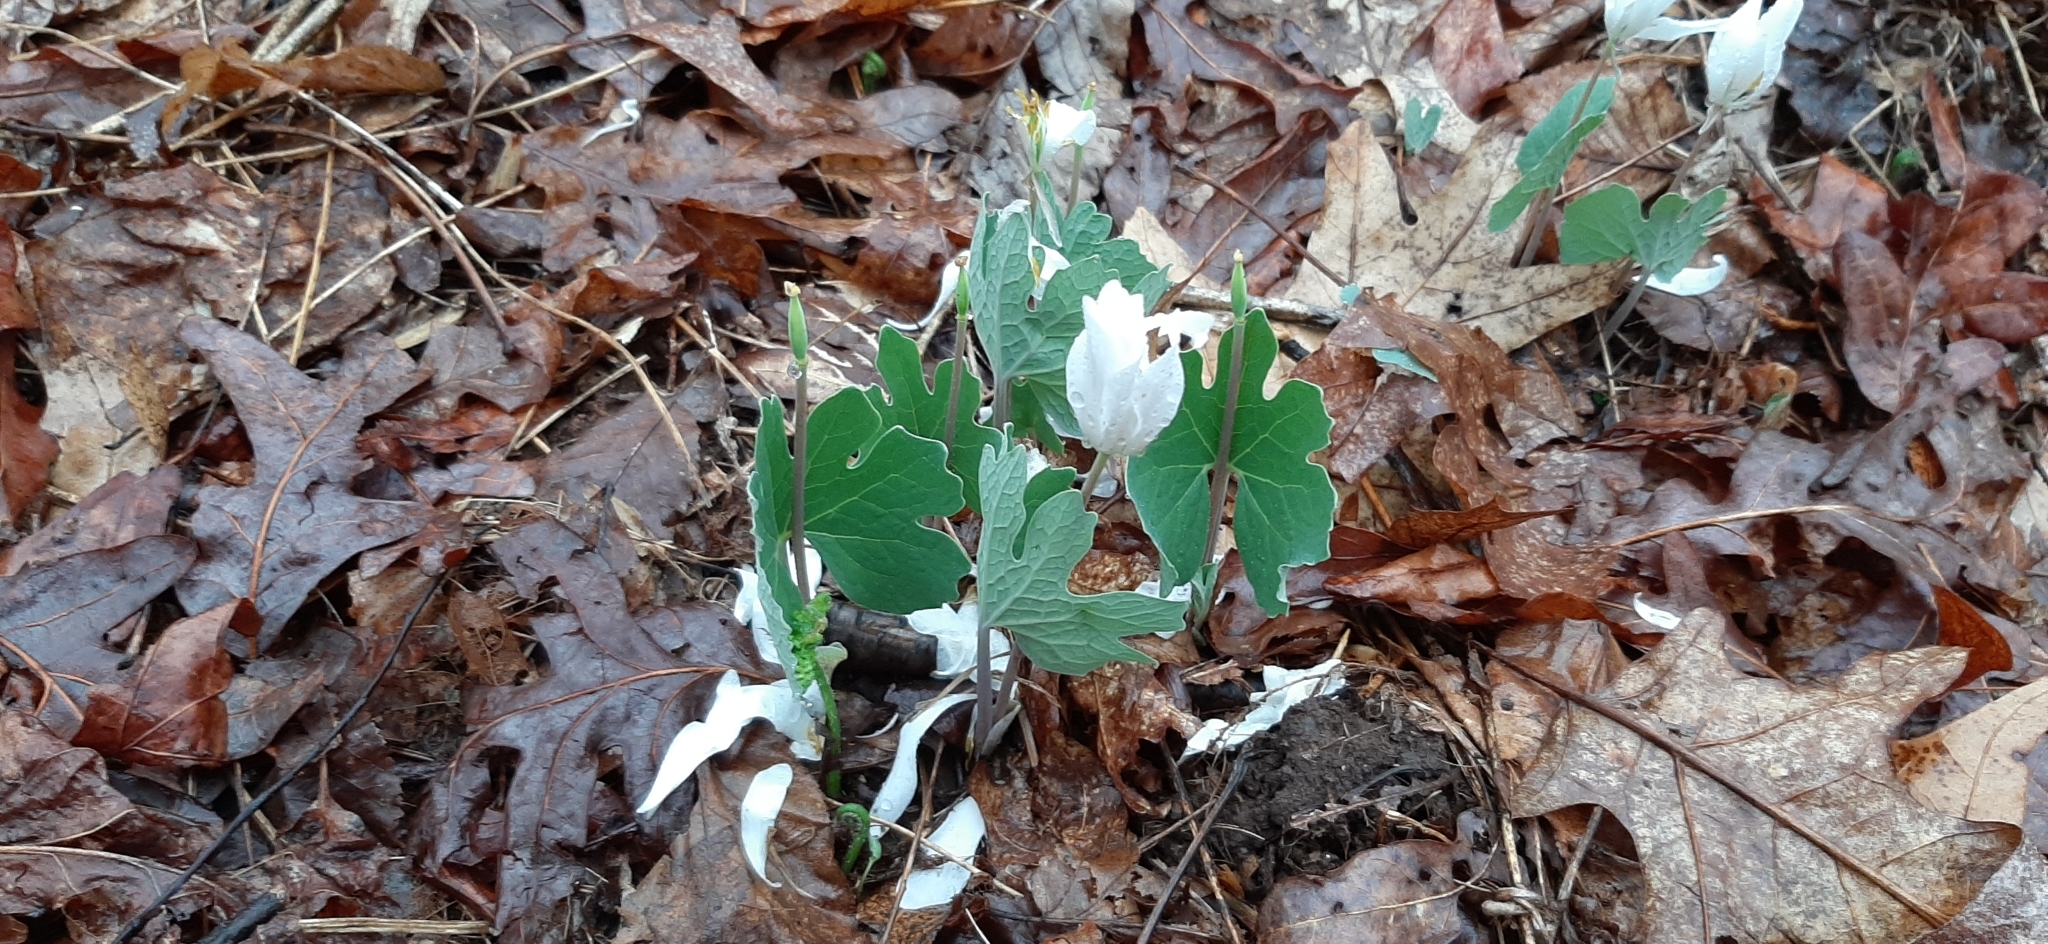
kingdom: Plantae
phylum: Tracheophyta
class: Magnoliopsida
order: Ranunculales
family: Papaveraceae
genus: Sanguinaria
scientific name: Sanguinaria canadensis
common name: Bloodroot
